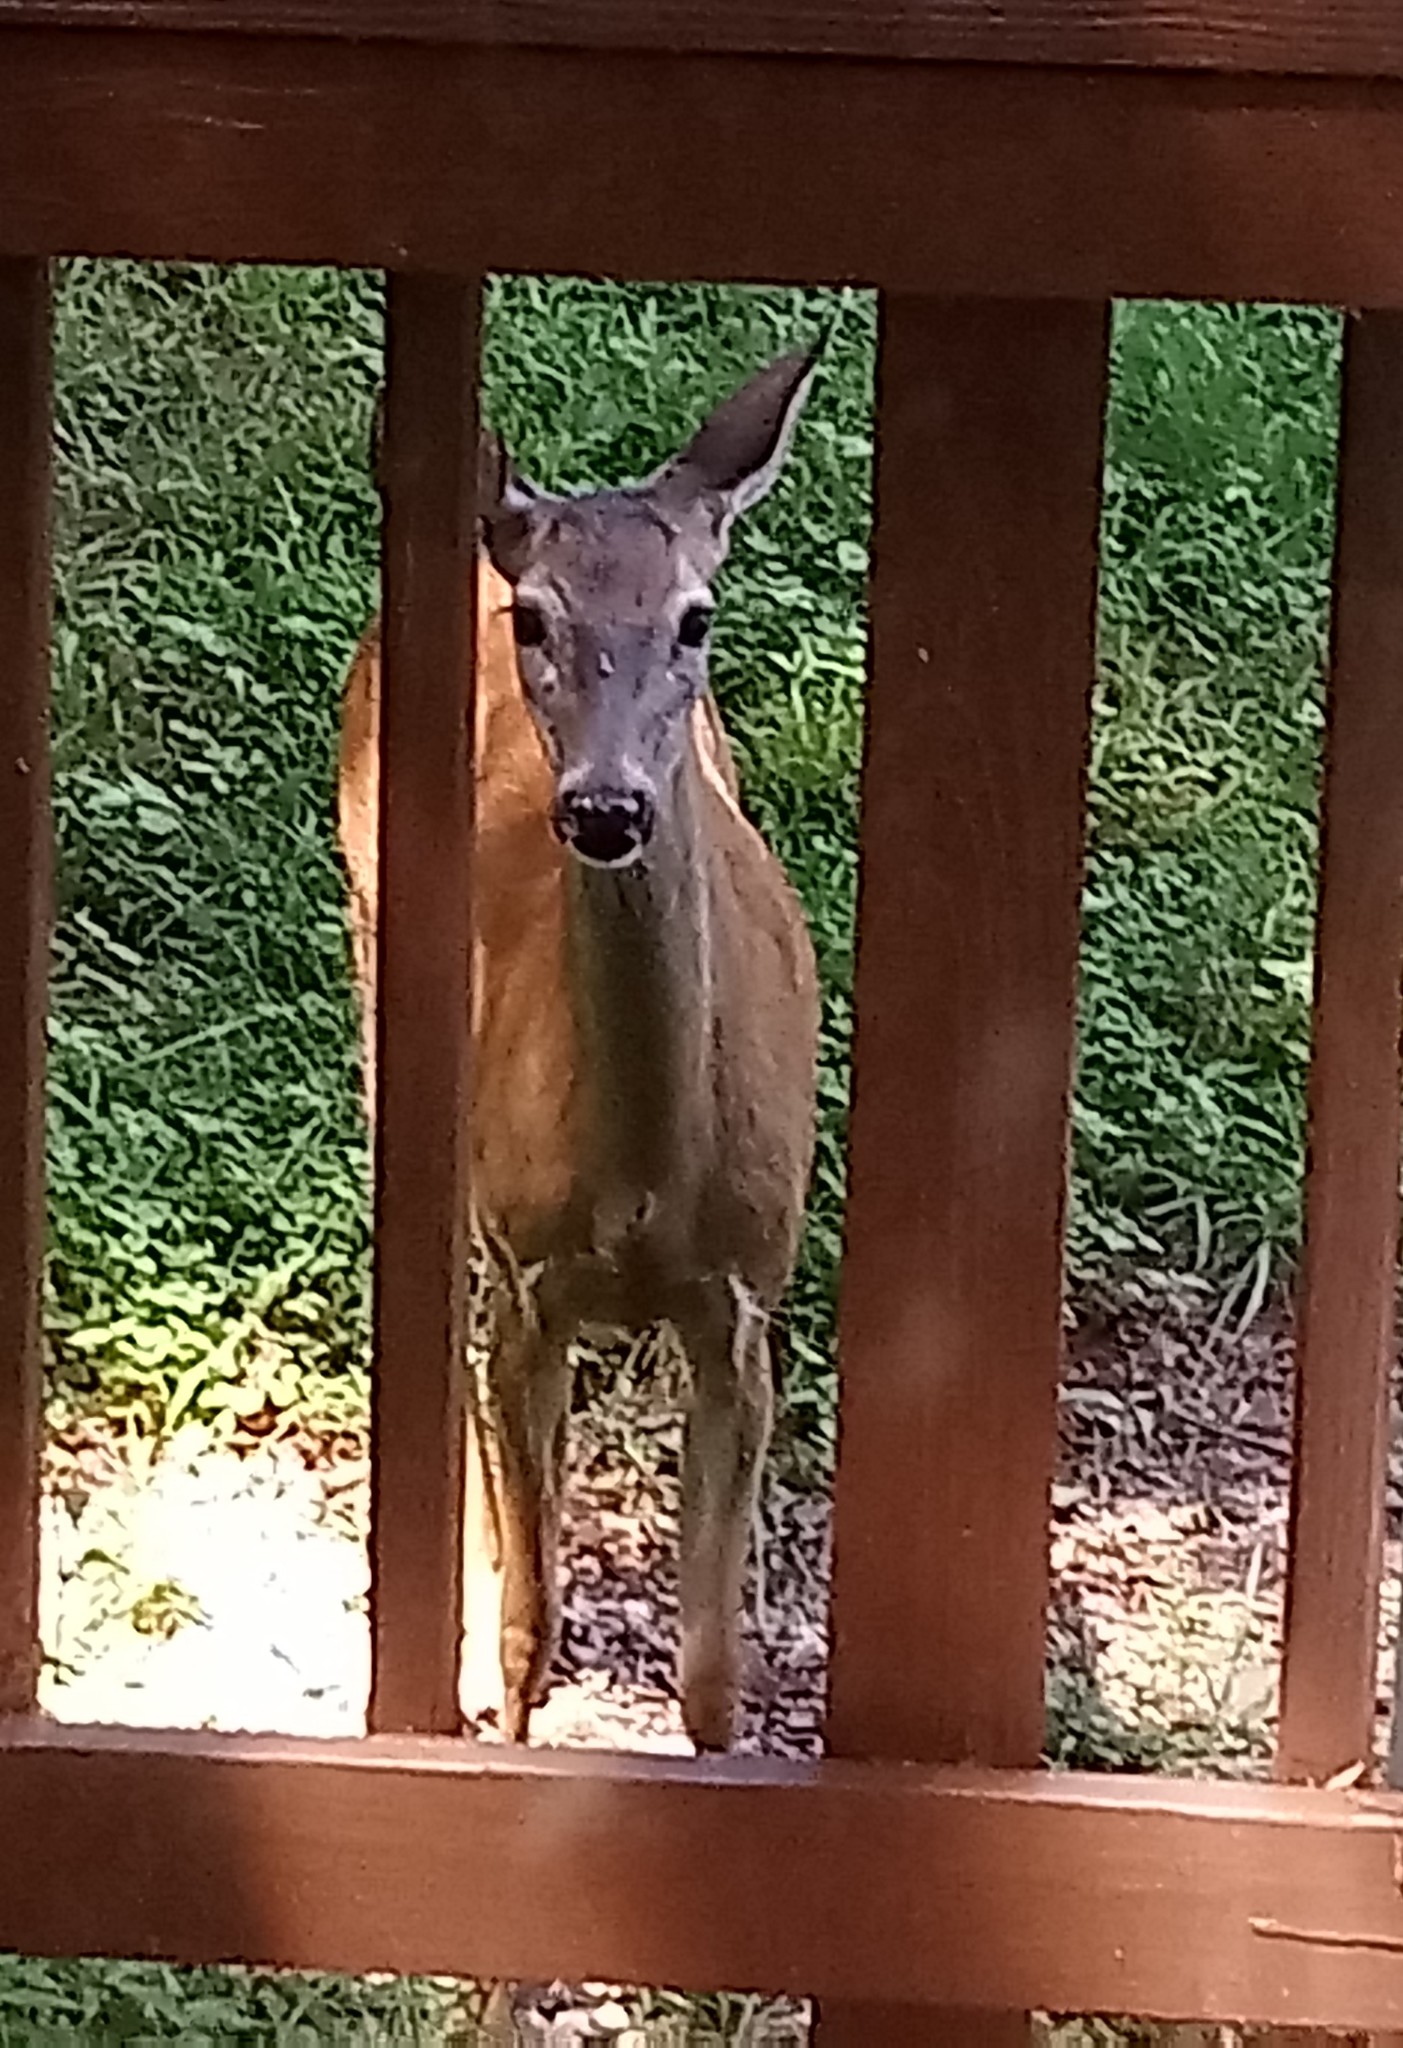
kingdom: Animalia
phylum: Chordata
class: Mammalia
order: Artiodactyla
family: Cervidae
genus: Odocoileus
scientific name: Odocoileus virginianus
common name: White-tailed deer
